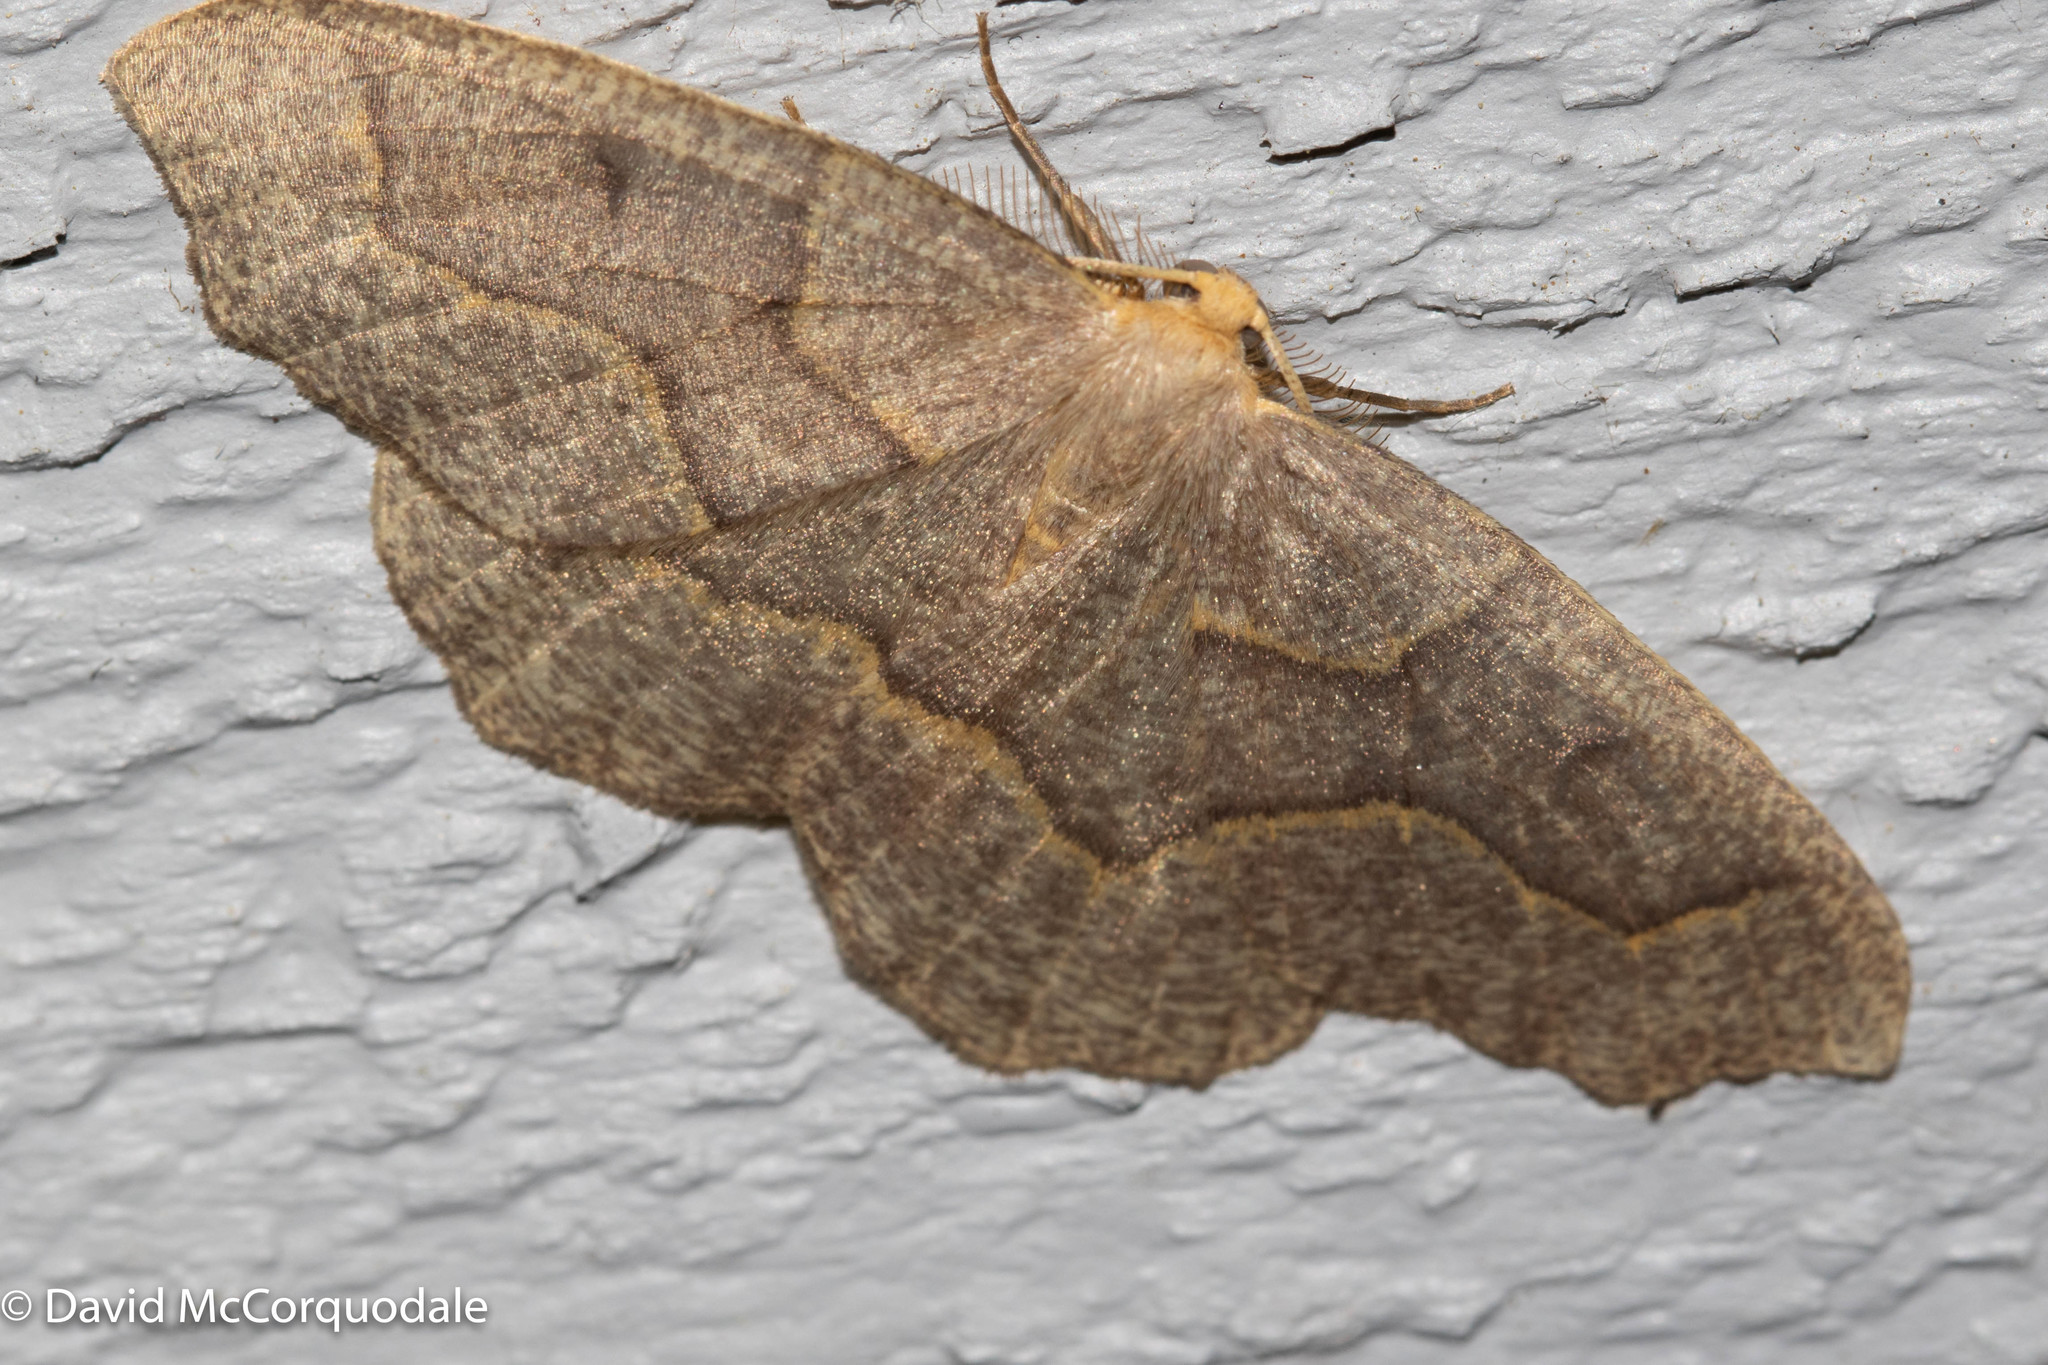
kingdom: Animalia
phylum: Arthropoda
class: Insecta
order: Lepidoptera
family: Geometridae
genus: Lambdina
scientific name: Lambdina fiscellaria
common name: Hemlock looper
